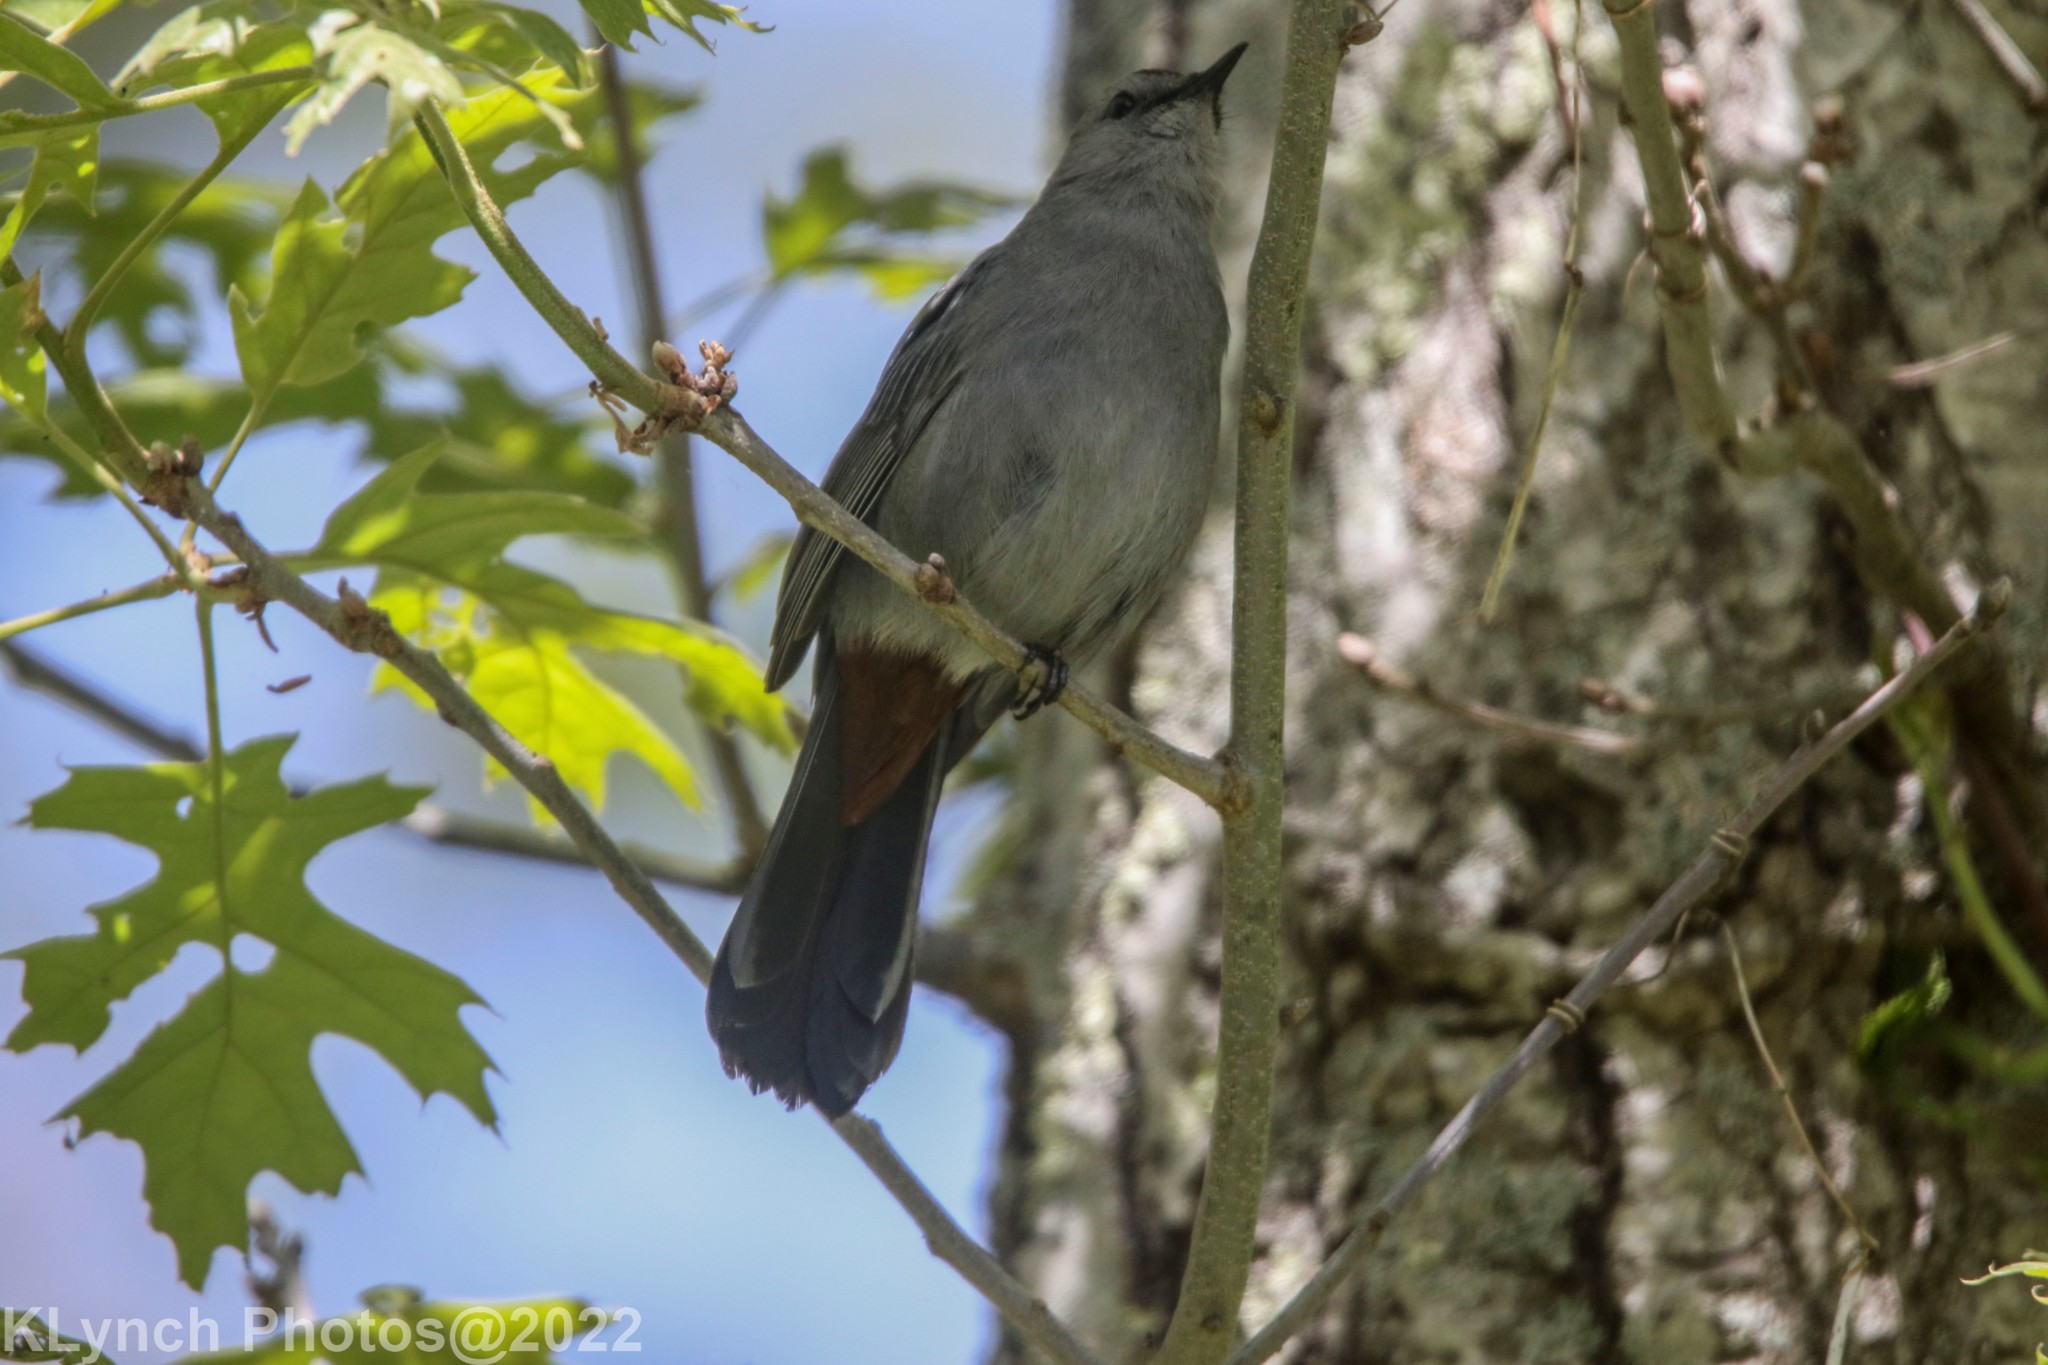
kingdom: Animalia
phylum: Chordata
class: Aves
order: Passeriformes
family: Mimidae
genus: Dumetella
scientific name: Dumetella carolinensis
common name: Gray catbird
